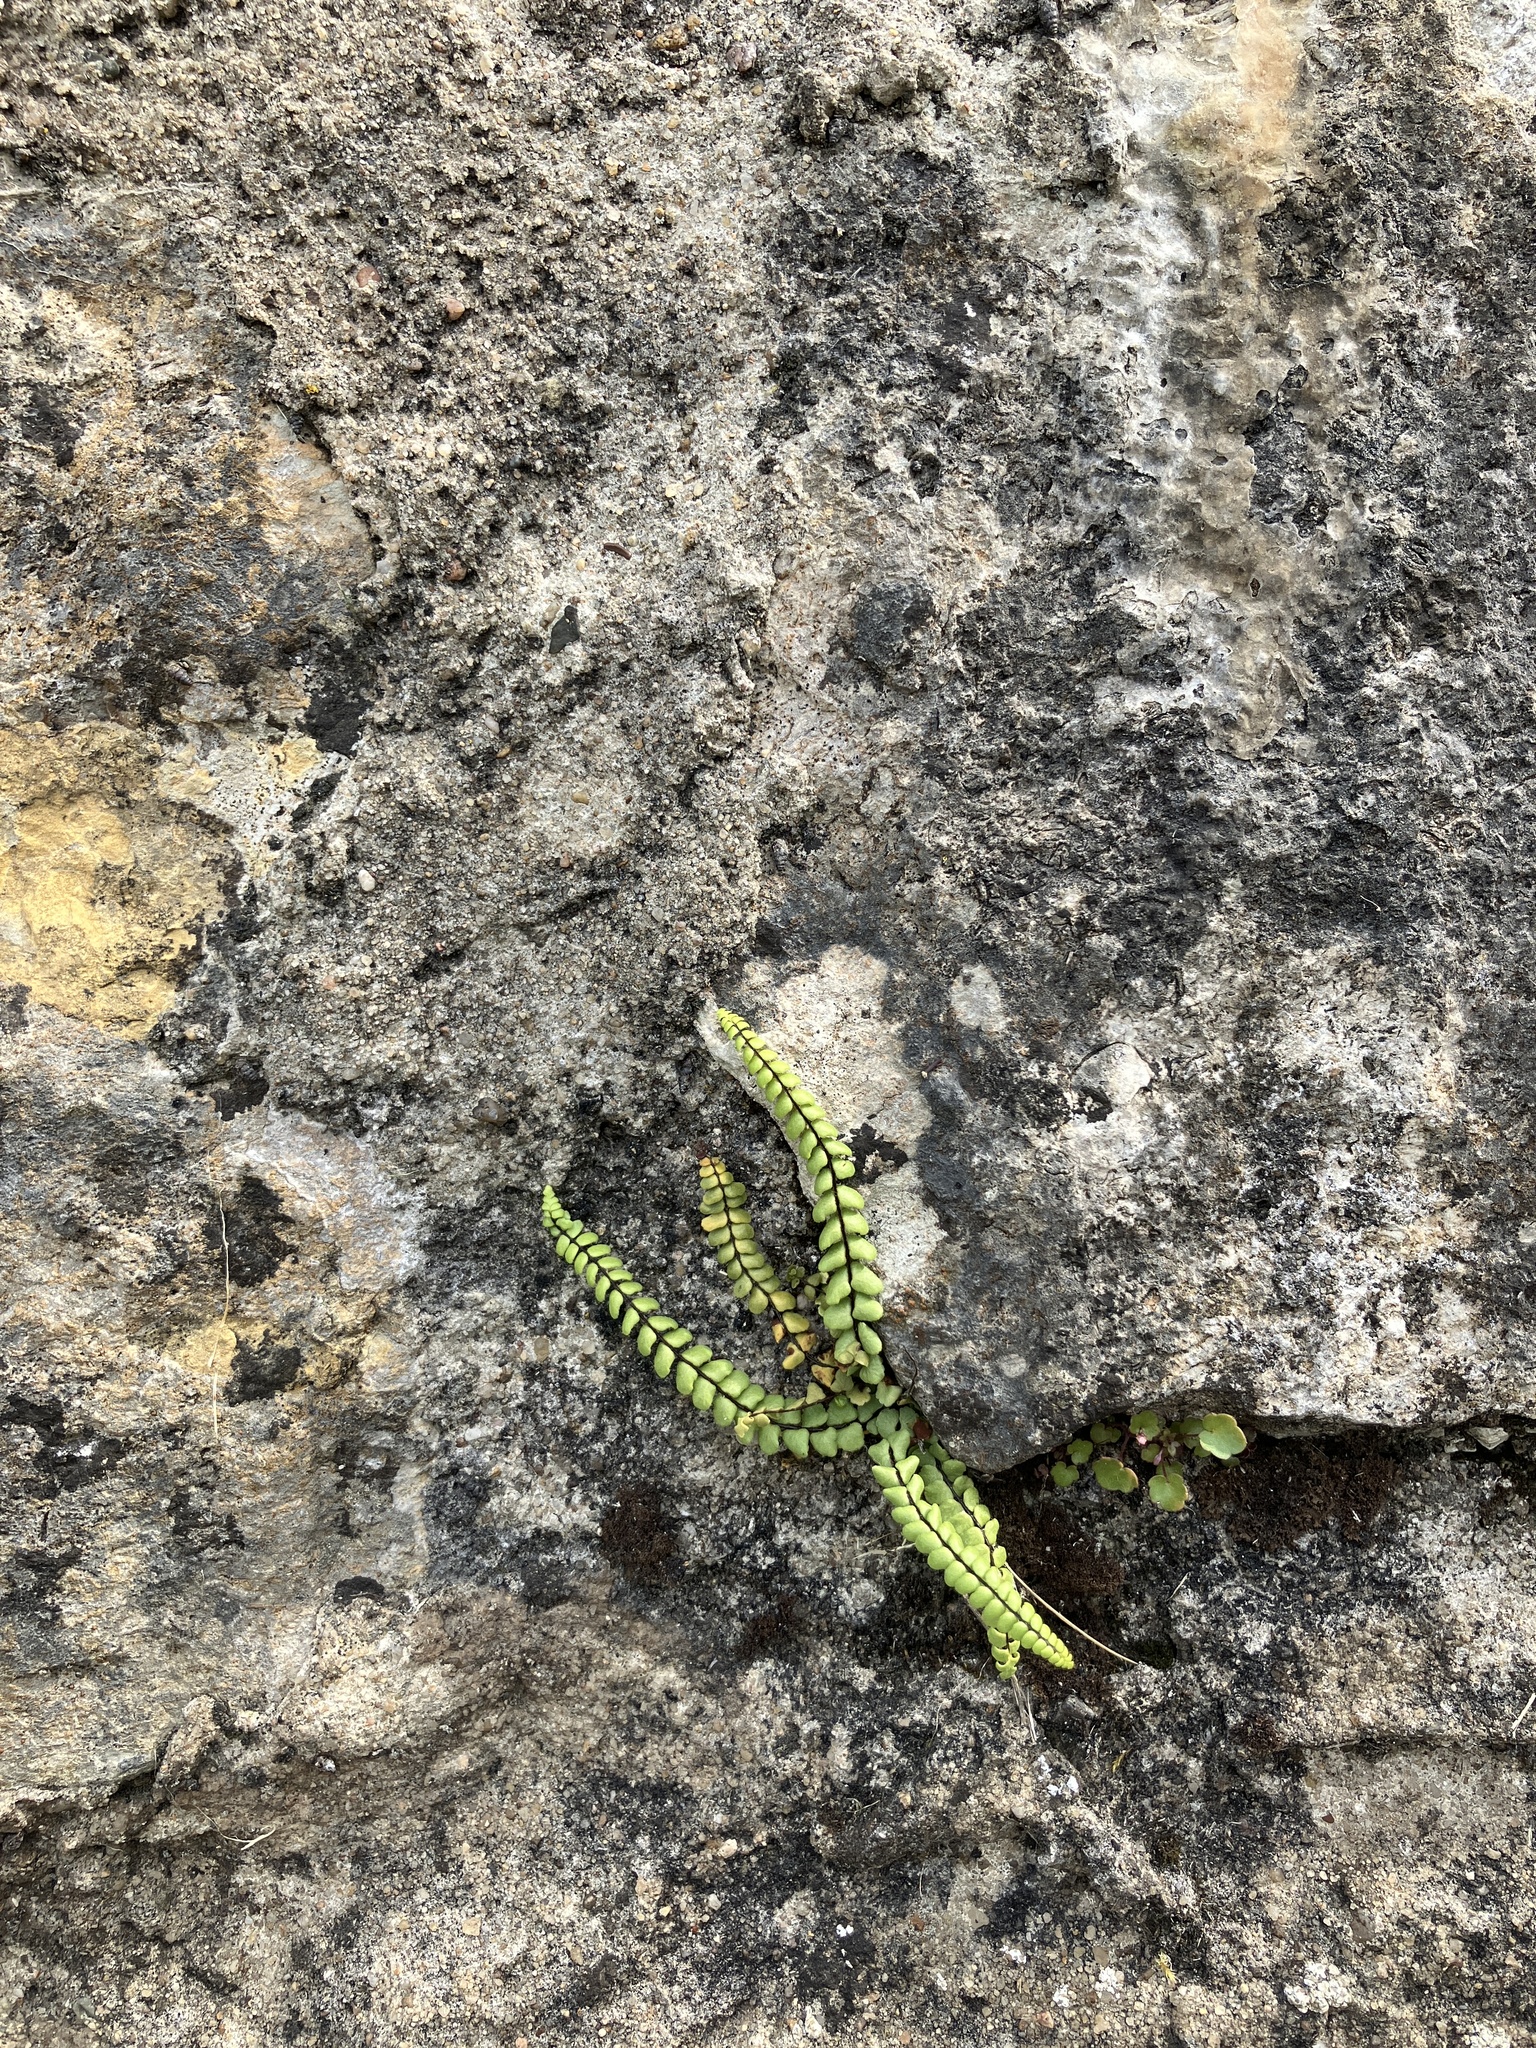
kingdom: Plantae
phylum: Tracheophyta
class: Polypodiopsida
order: Polypodiales
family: Aspleniaceae
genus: Asplenium
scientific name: Asplenium trichomanes
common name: Maidenhair spleenwort
